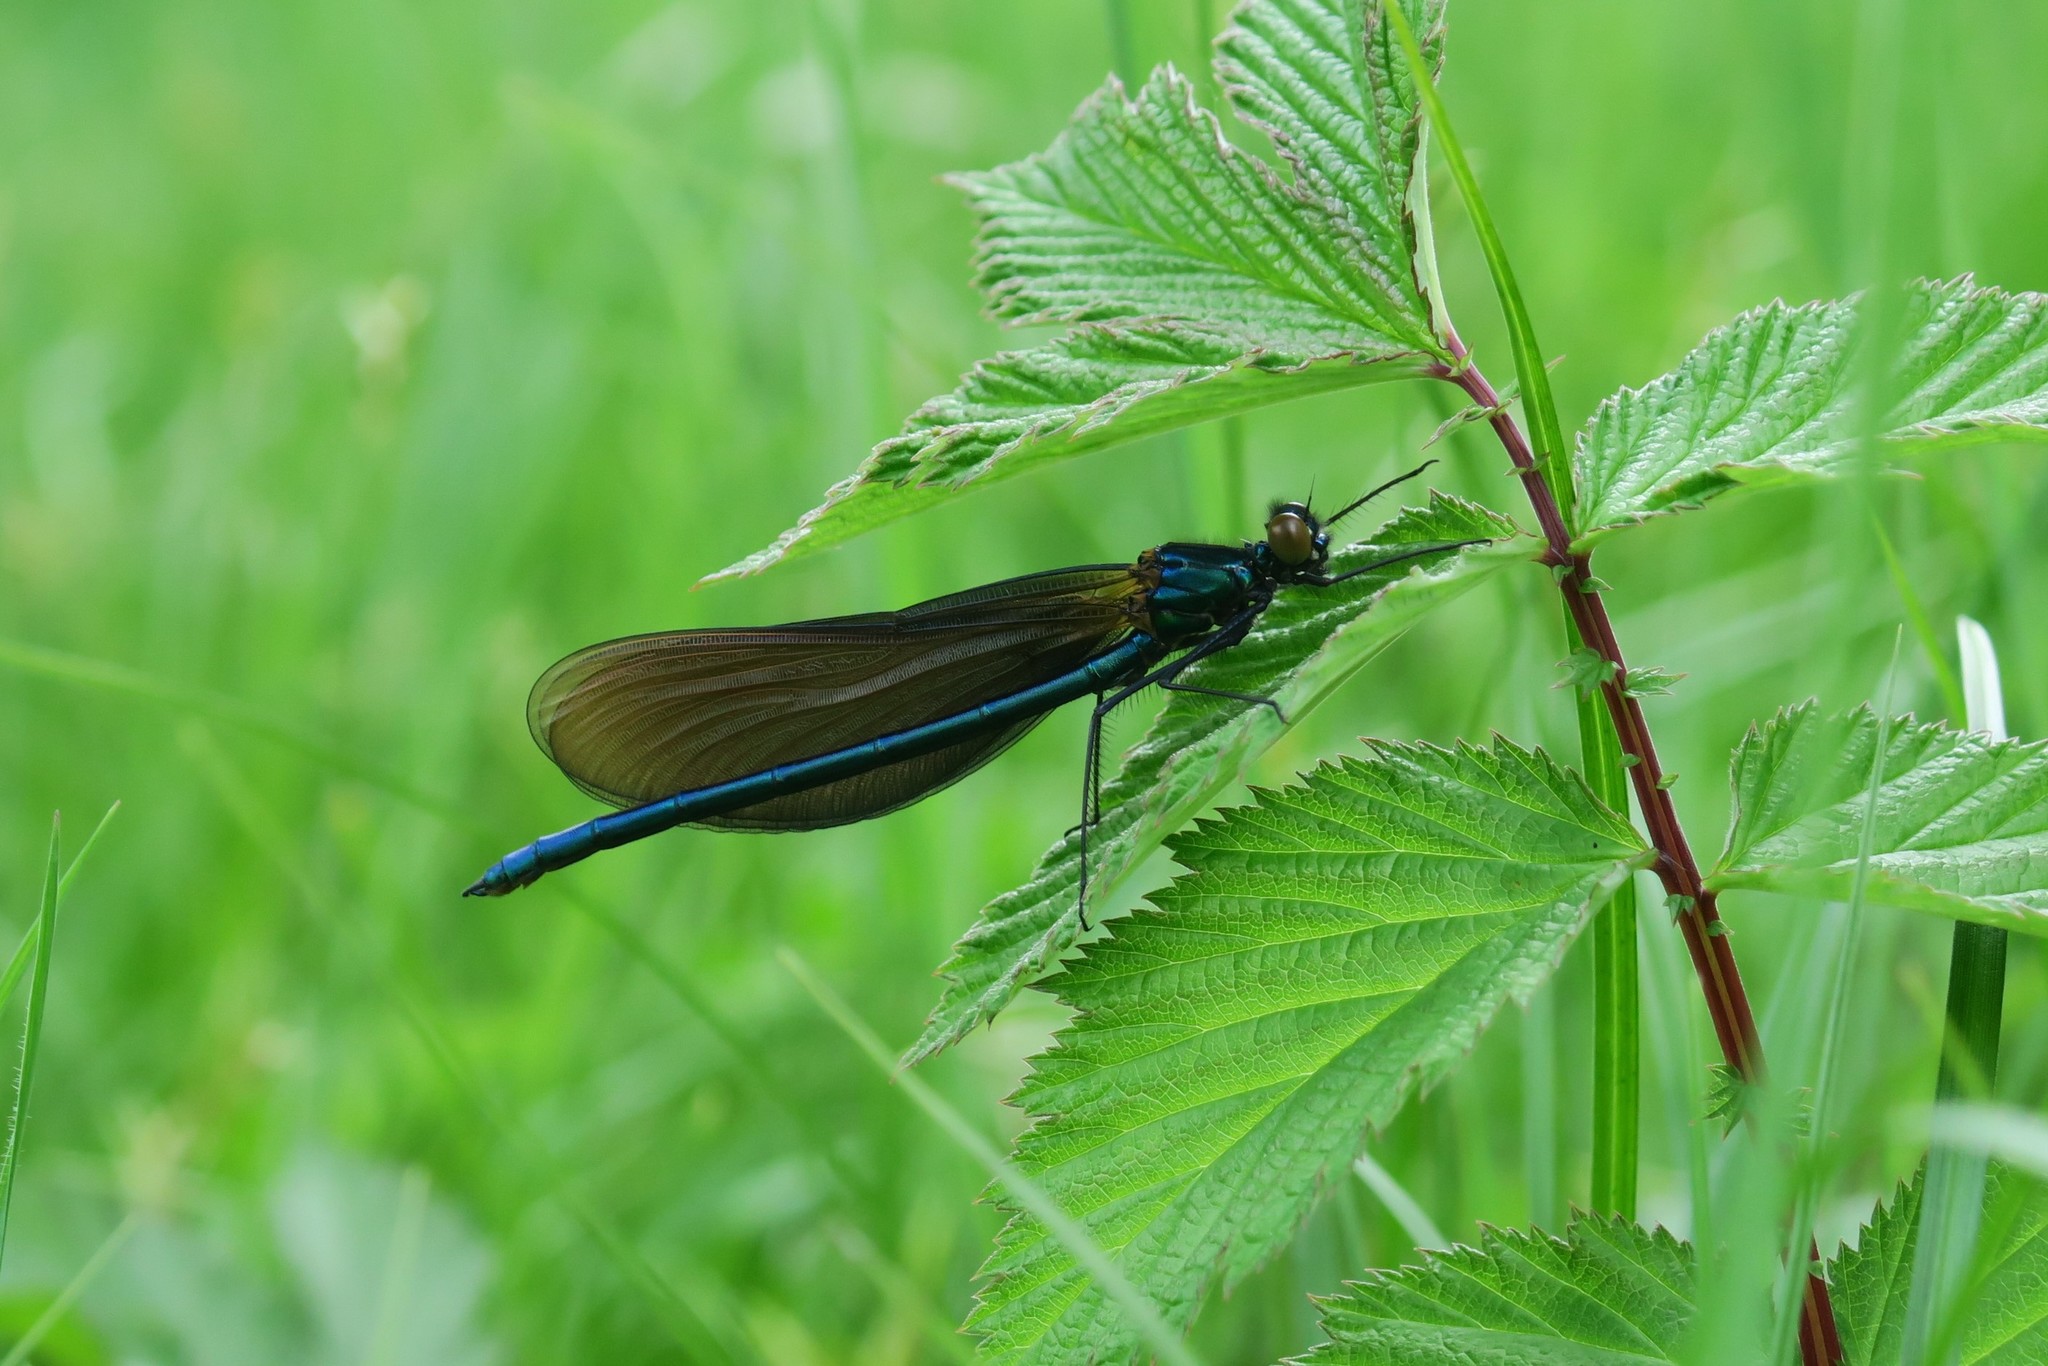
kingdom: Animalia
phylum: Arthropoda
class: Insecta
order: Odonata
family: Calopterygidae
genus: Calopteryx
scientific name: Calopteryx virgo
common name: Beautiful demoiselle
